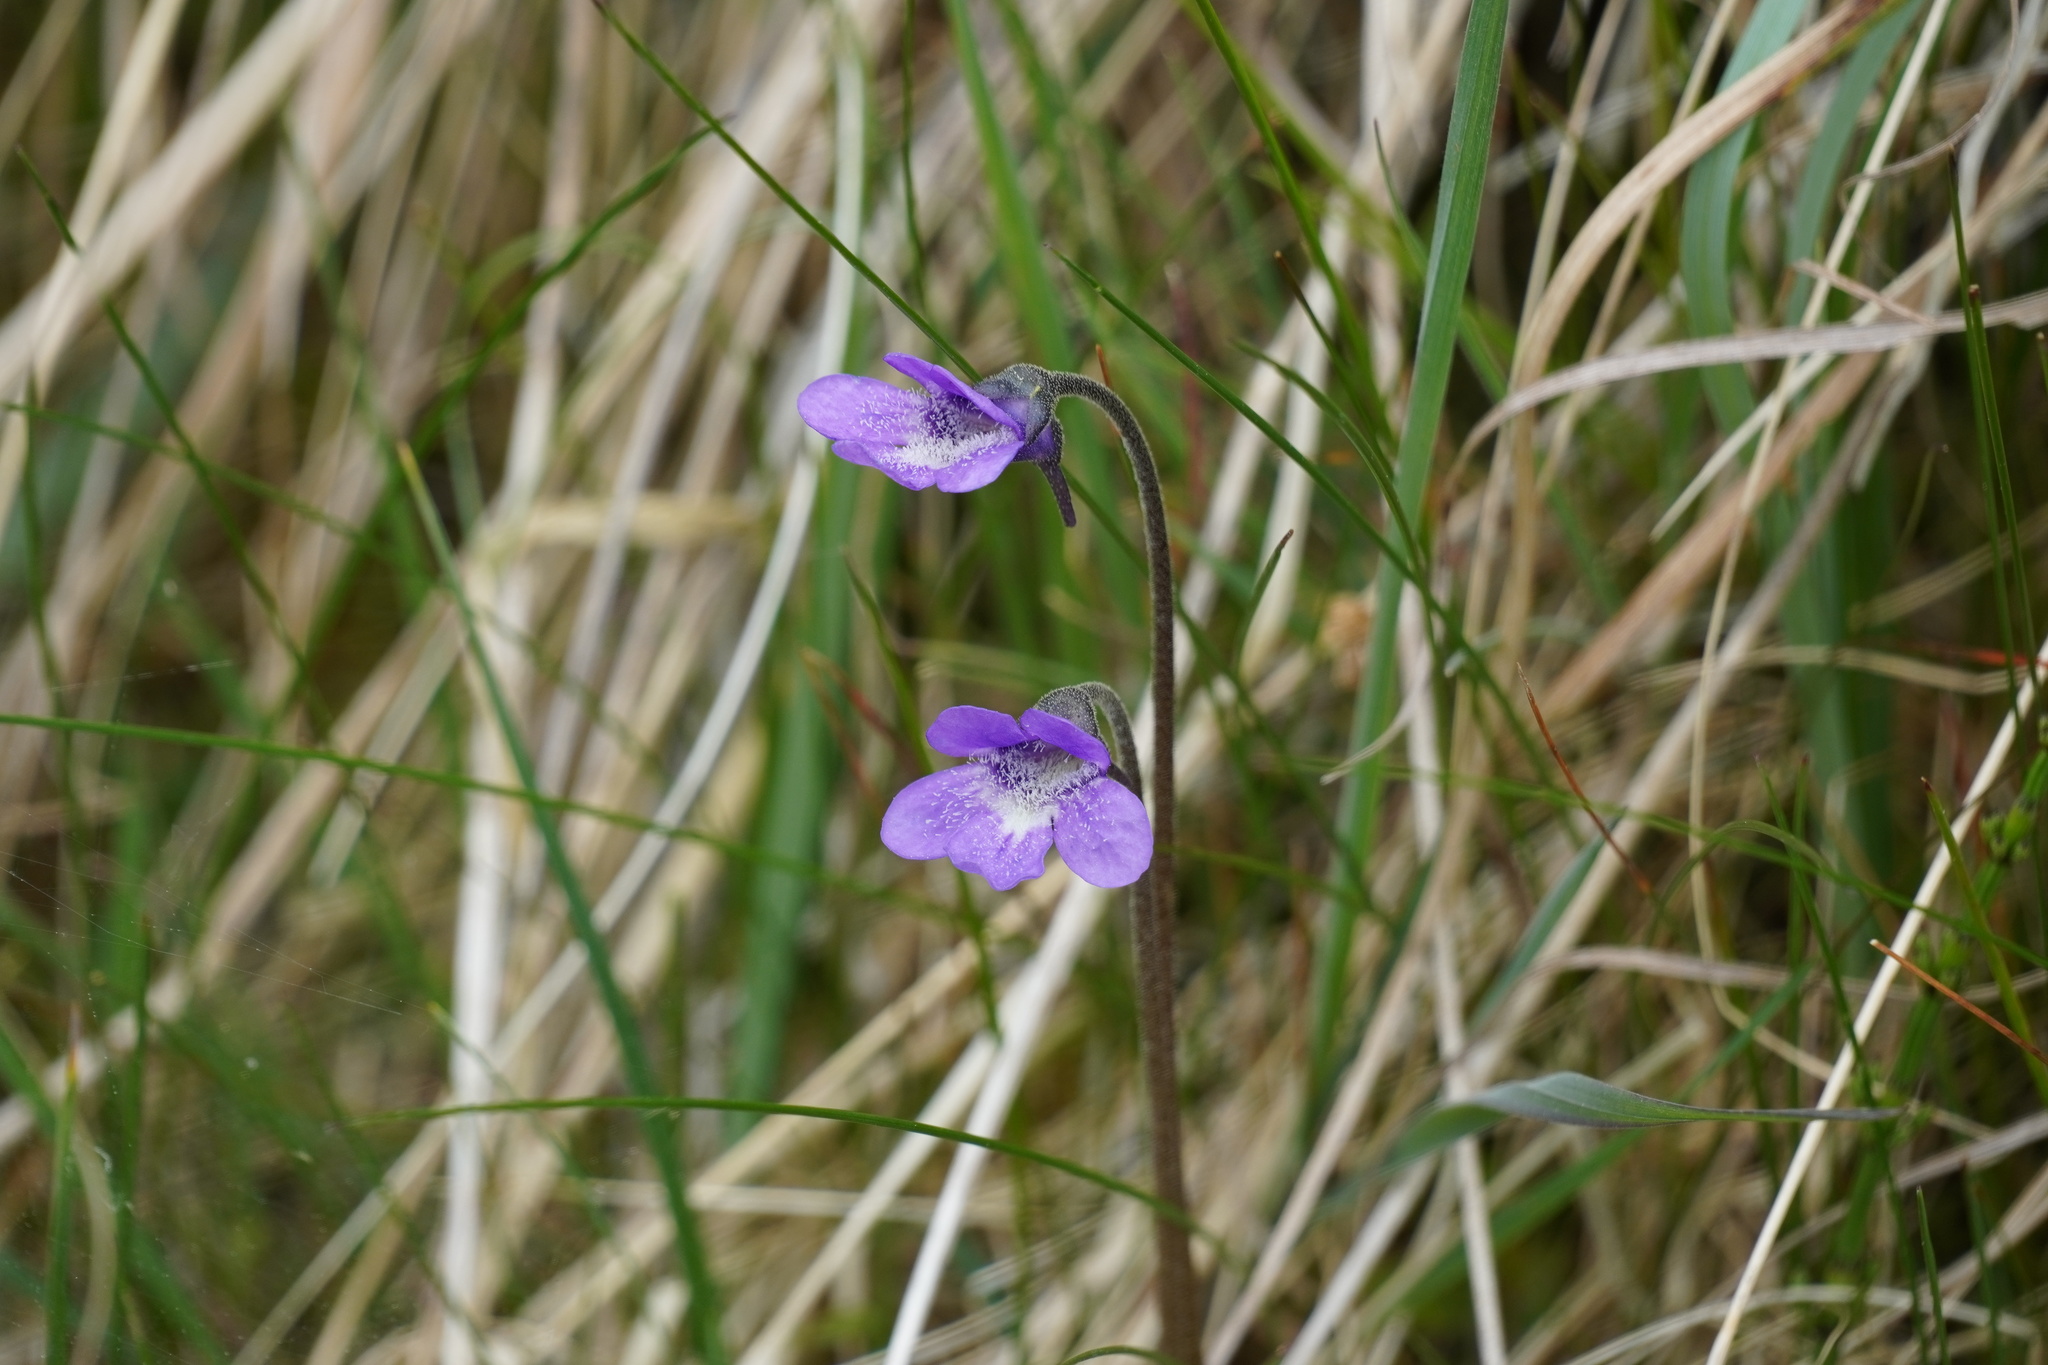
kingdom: Plantae
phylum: Tracheophyta
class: Magnoliopsida
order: Lamiales
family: Lentibulariaceae
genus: Pinguicula
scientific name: Pinguicula vulgaris
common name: Common butterwort
